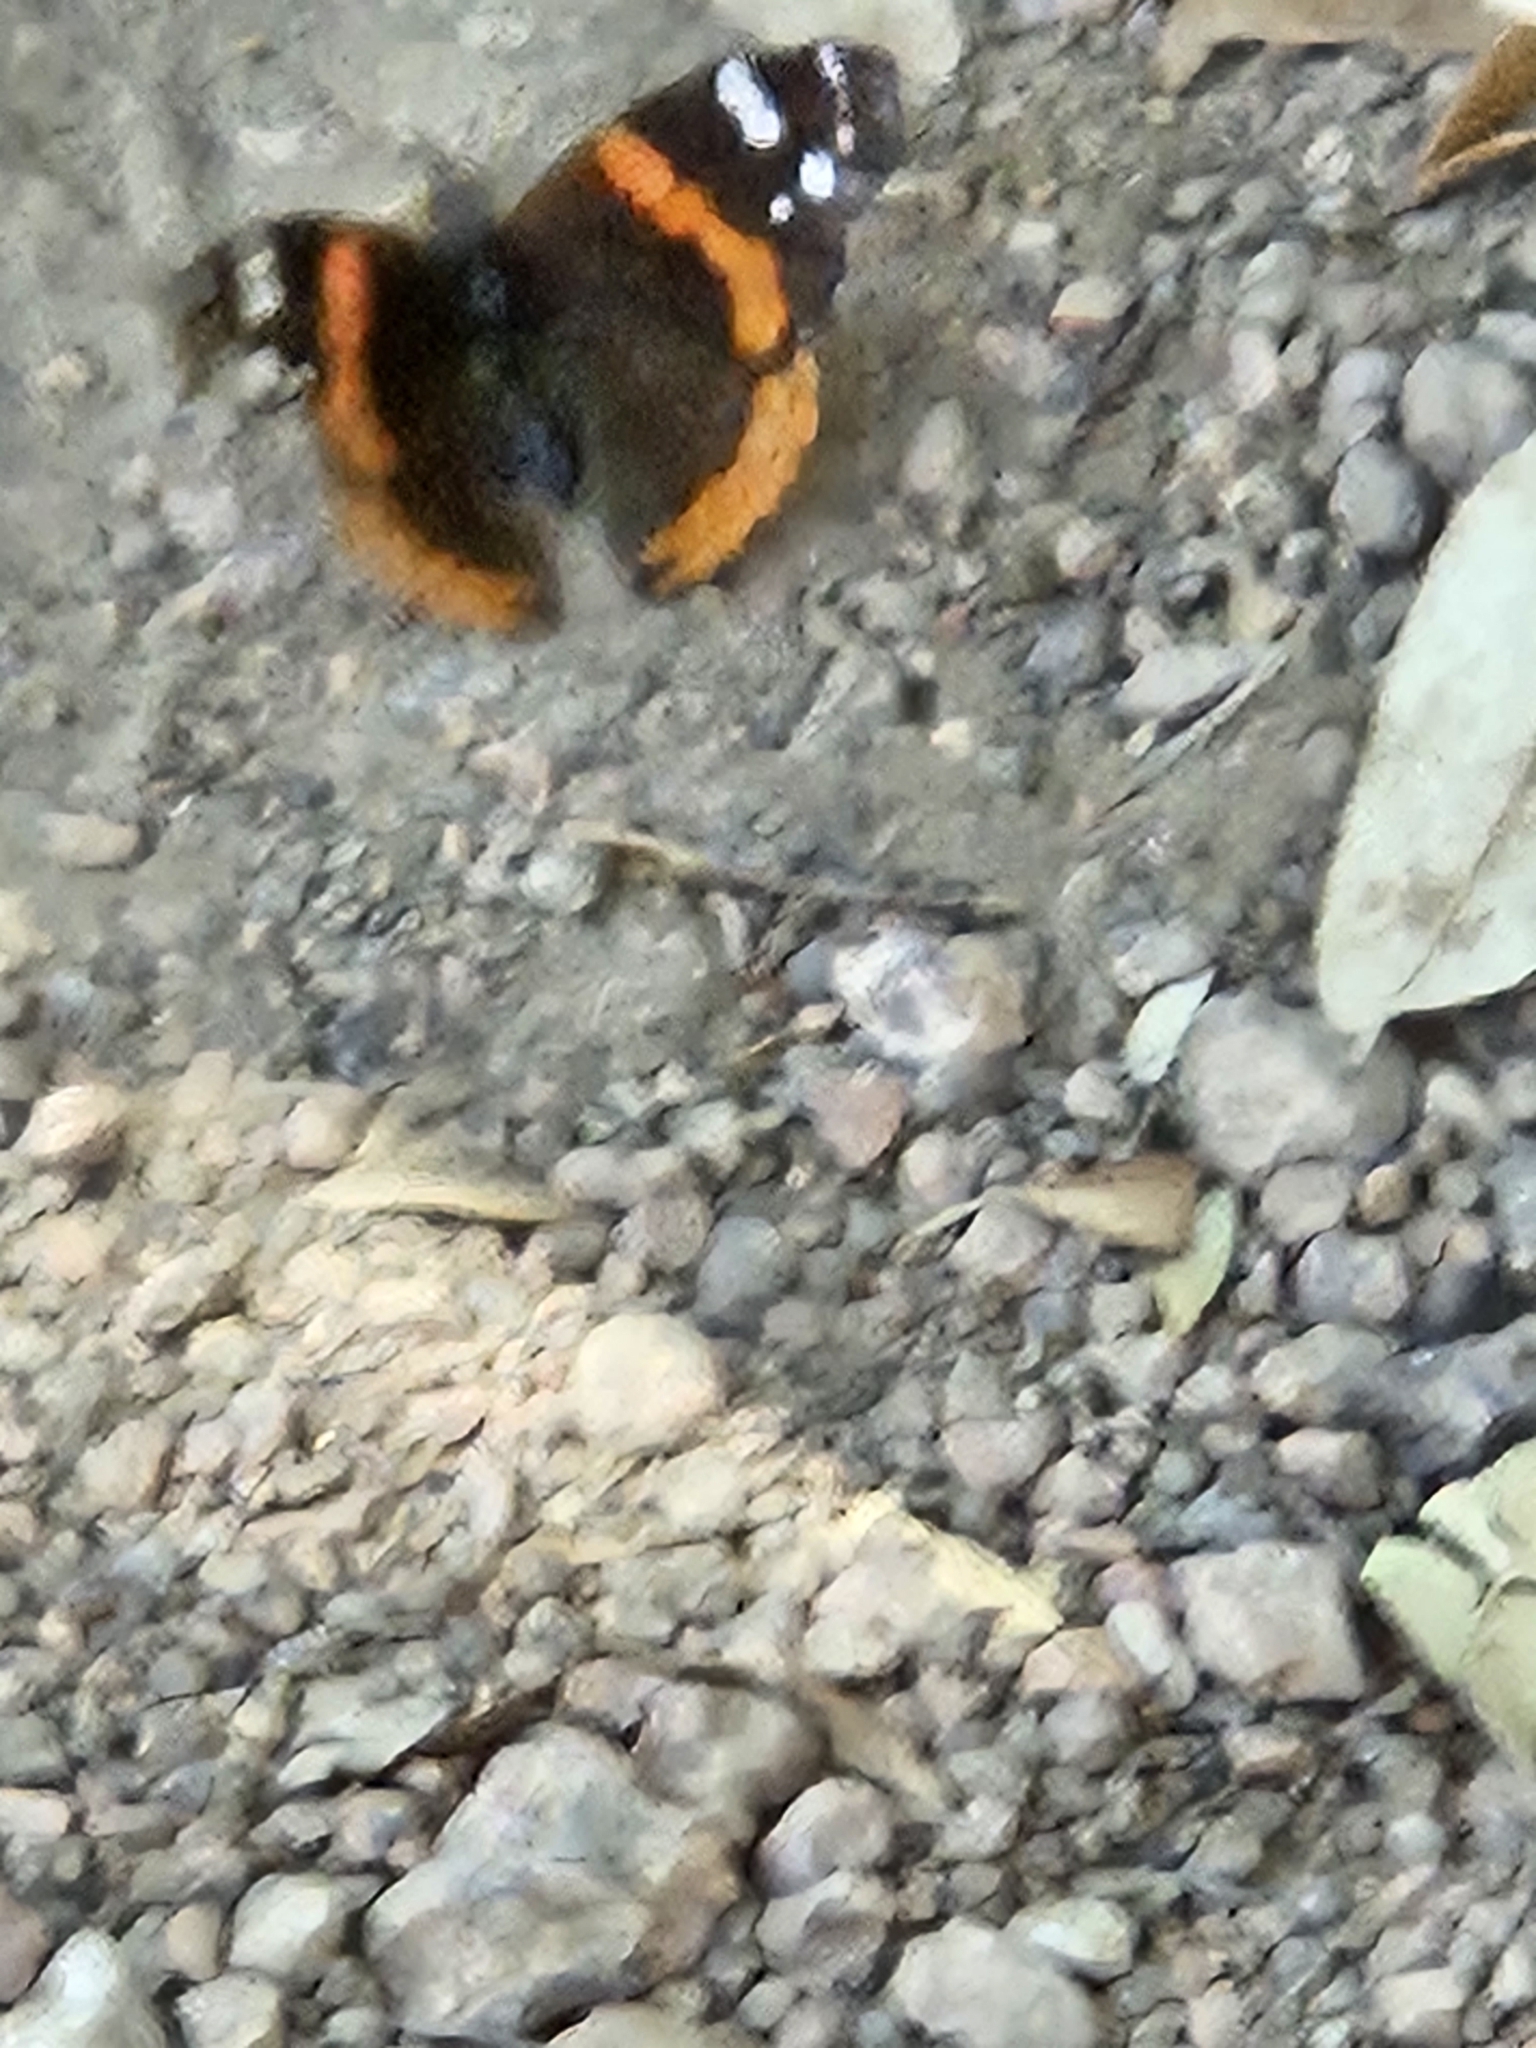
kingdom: Animalia
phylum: Arthropoda
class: Insecta
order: Lepidoptera
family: Nymphalidae
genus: Vanessa
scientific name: Vanessa atalanta
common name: Red admiral
